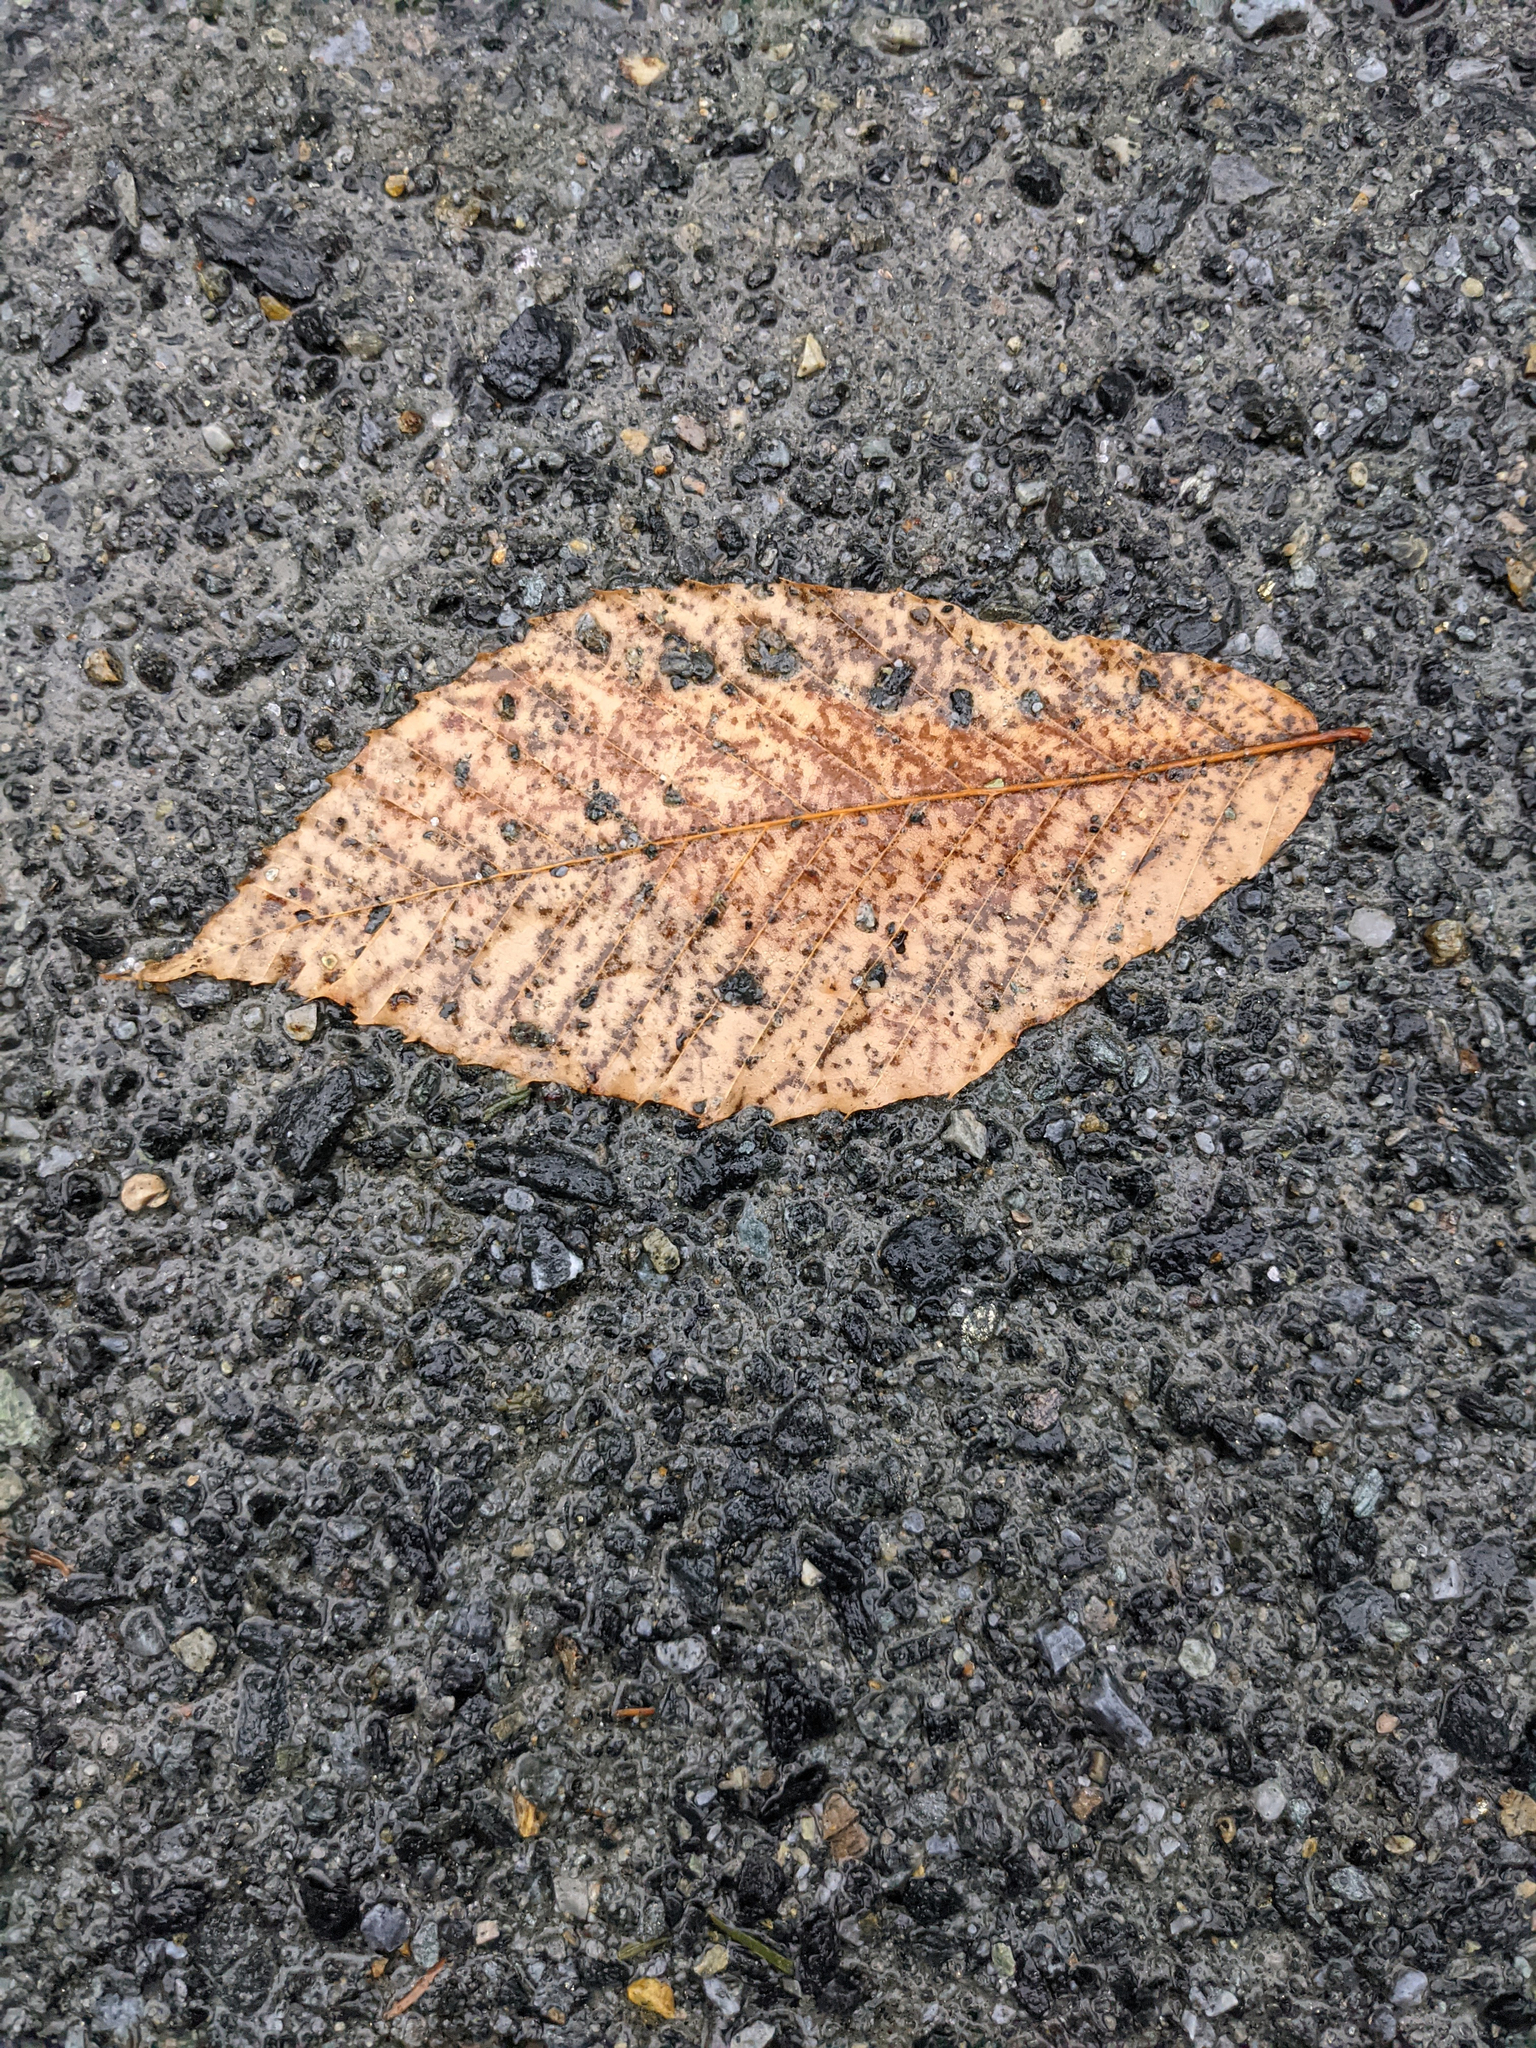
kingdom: Plantae
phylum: Tracheophyta
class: Magnoliopsida
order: Fagales
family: Fagaceae
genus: Fagus
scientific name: Fagus grandifolia
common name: American beech
